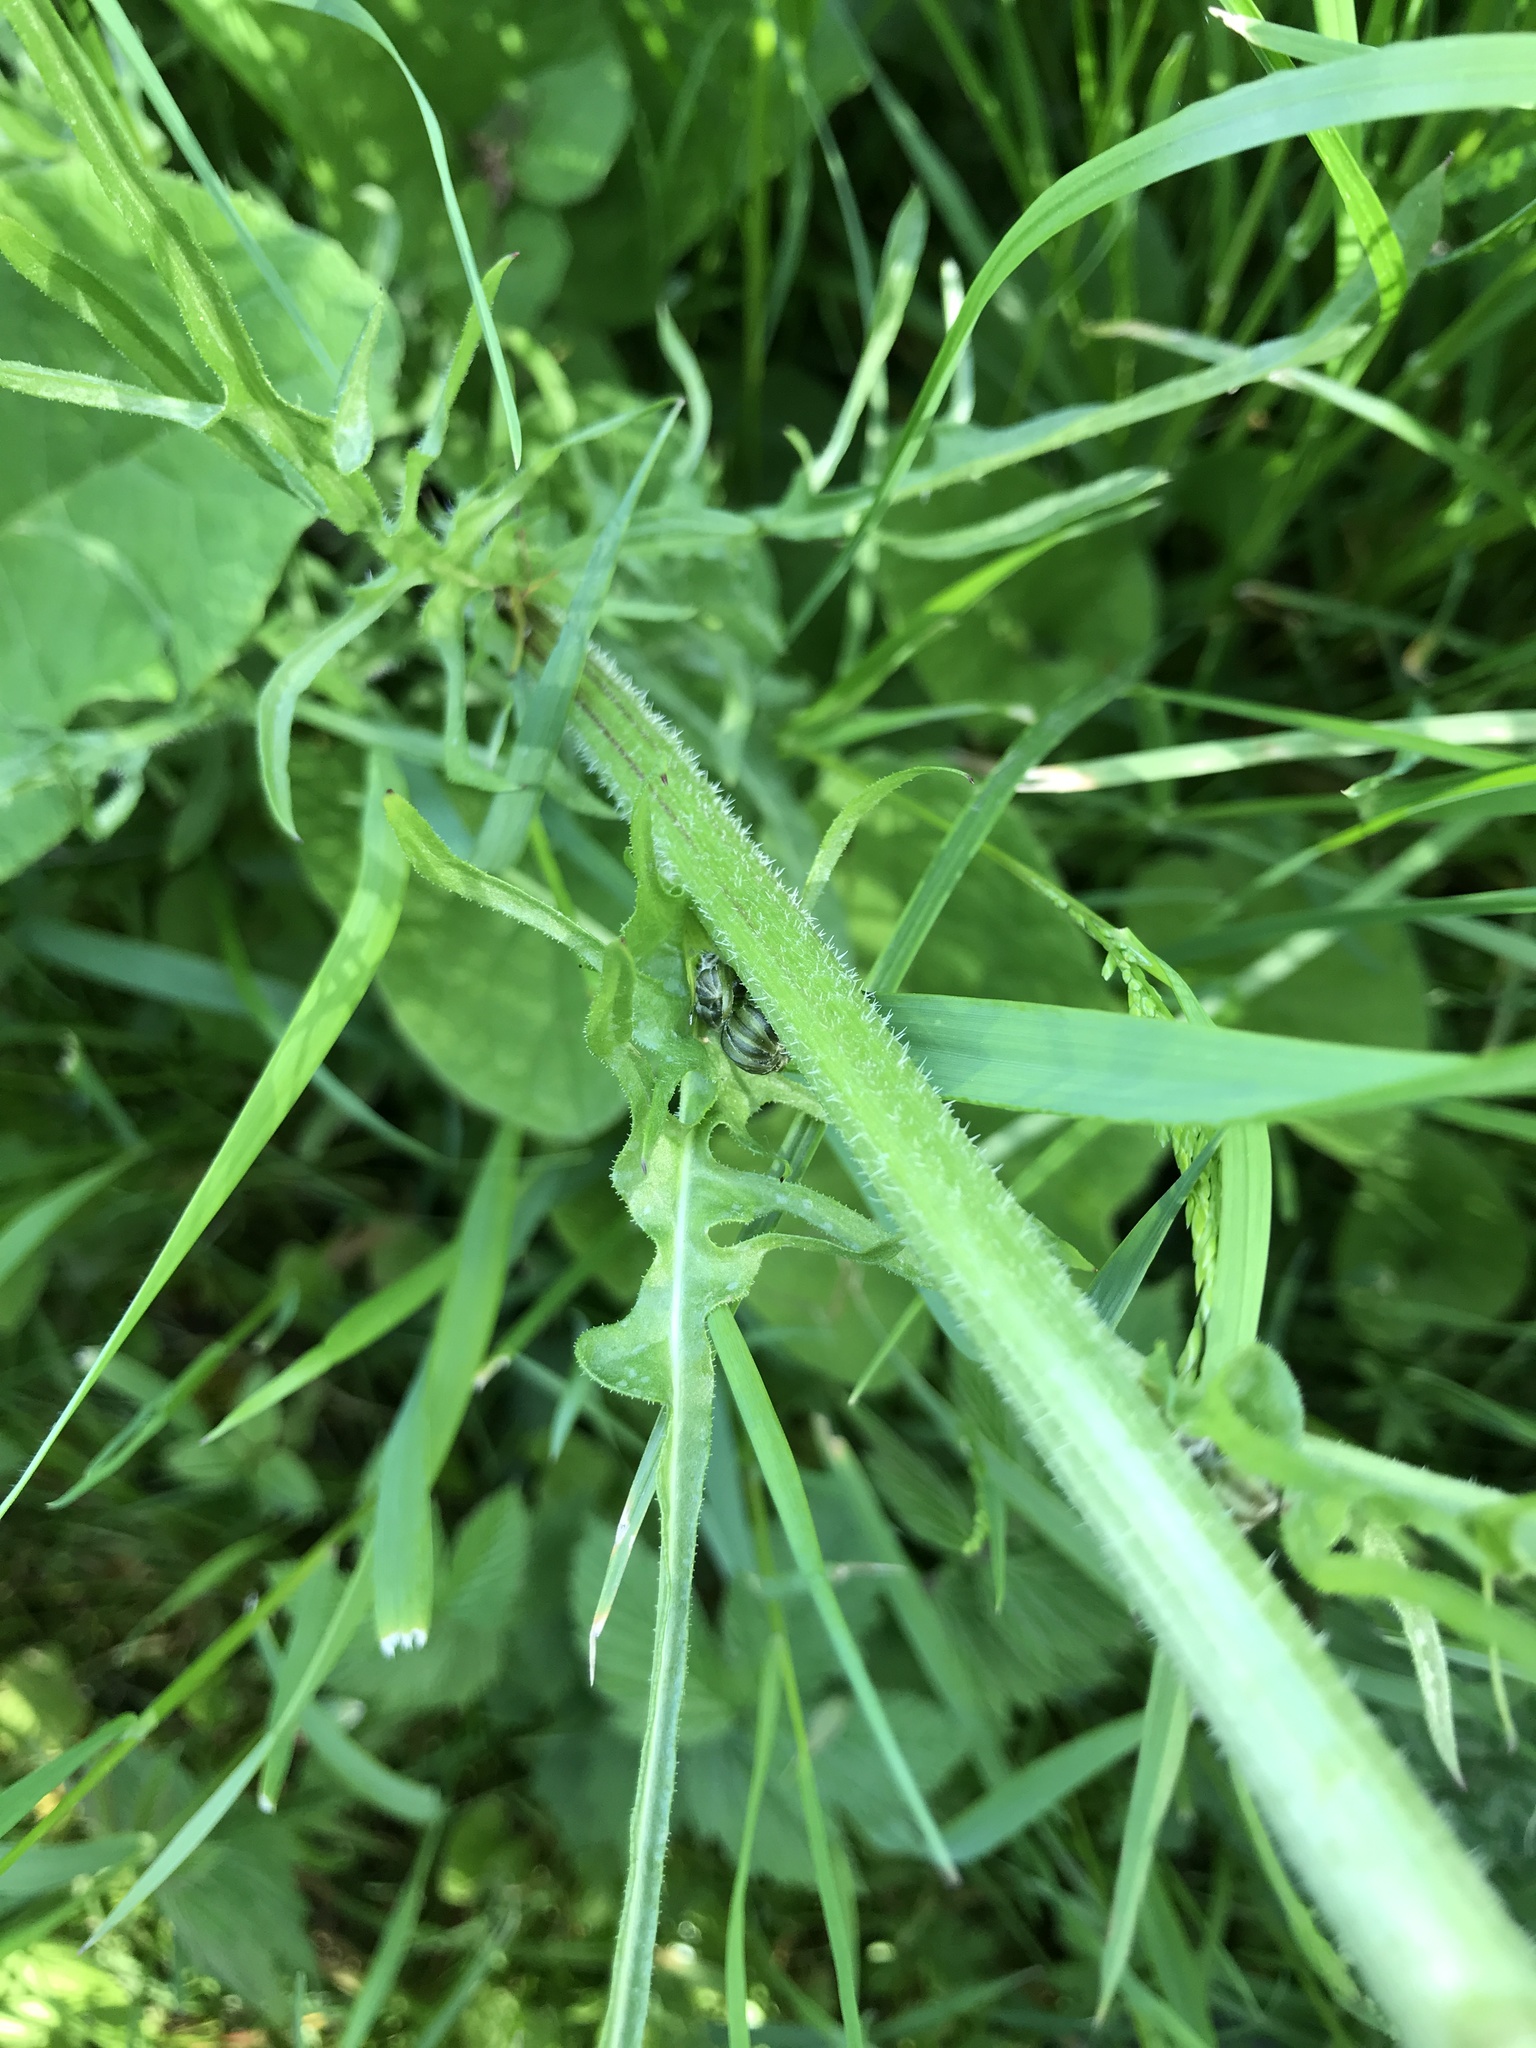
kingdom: Plantae
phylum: Tracheophyta
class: Magnoliopsida
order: Asterales
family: Asteraceae
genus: Crepis
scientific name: Crepis biennis
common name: Rough hawk's-beard
